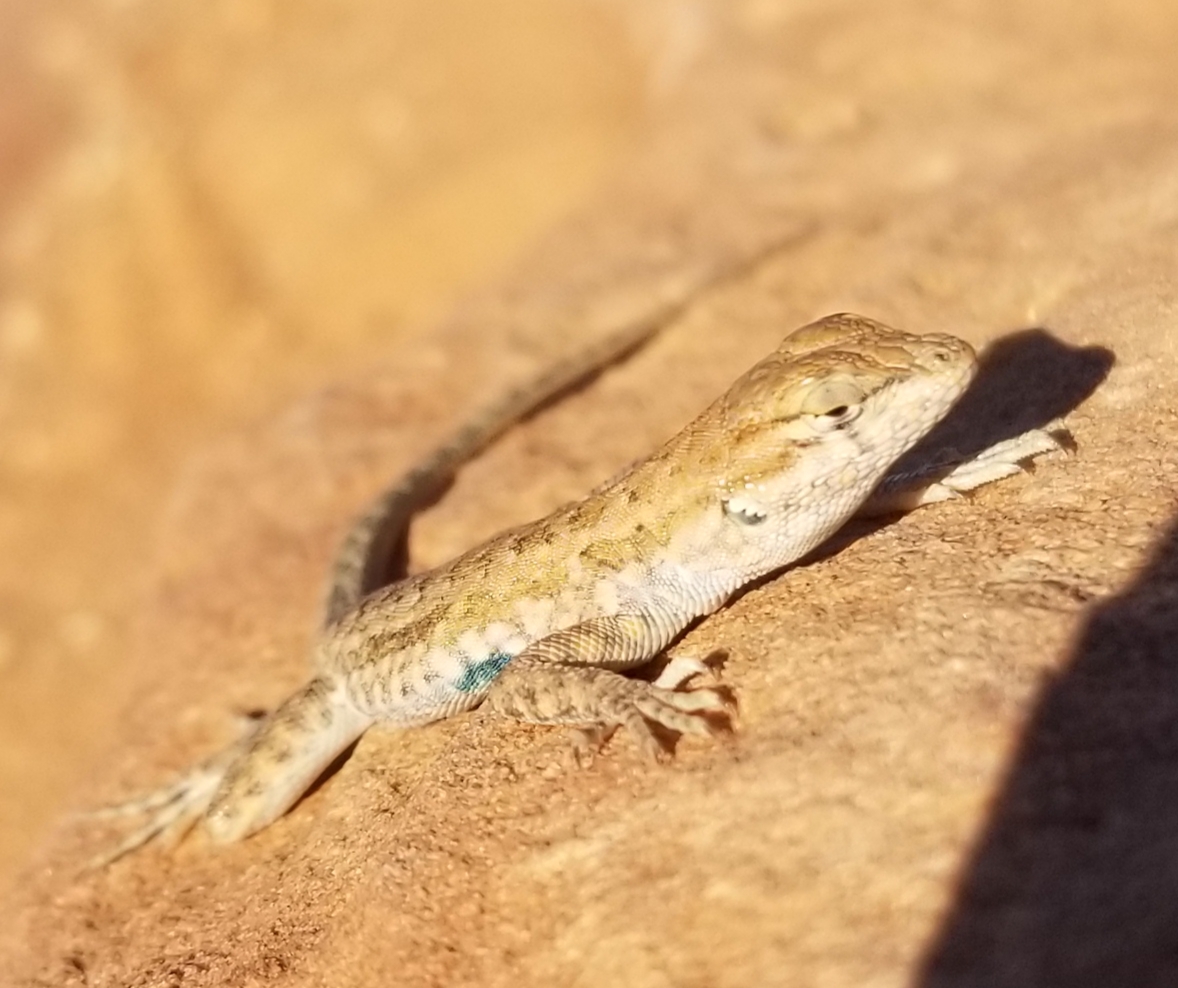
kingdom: Animalia
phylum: Chordata
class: Squamata
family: Phrynosomatidae
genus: Uta
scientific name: Uta stansburiana
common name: Side-blotched lizard
